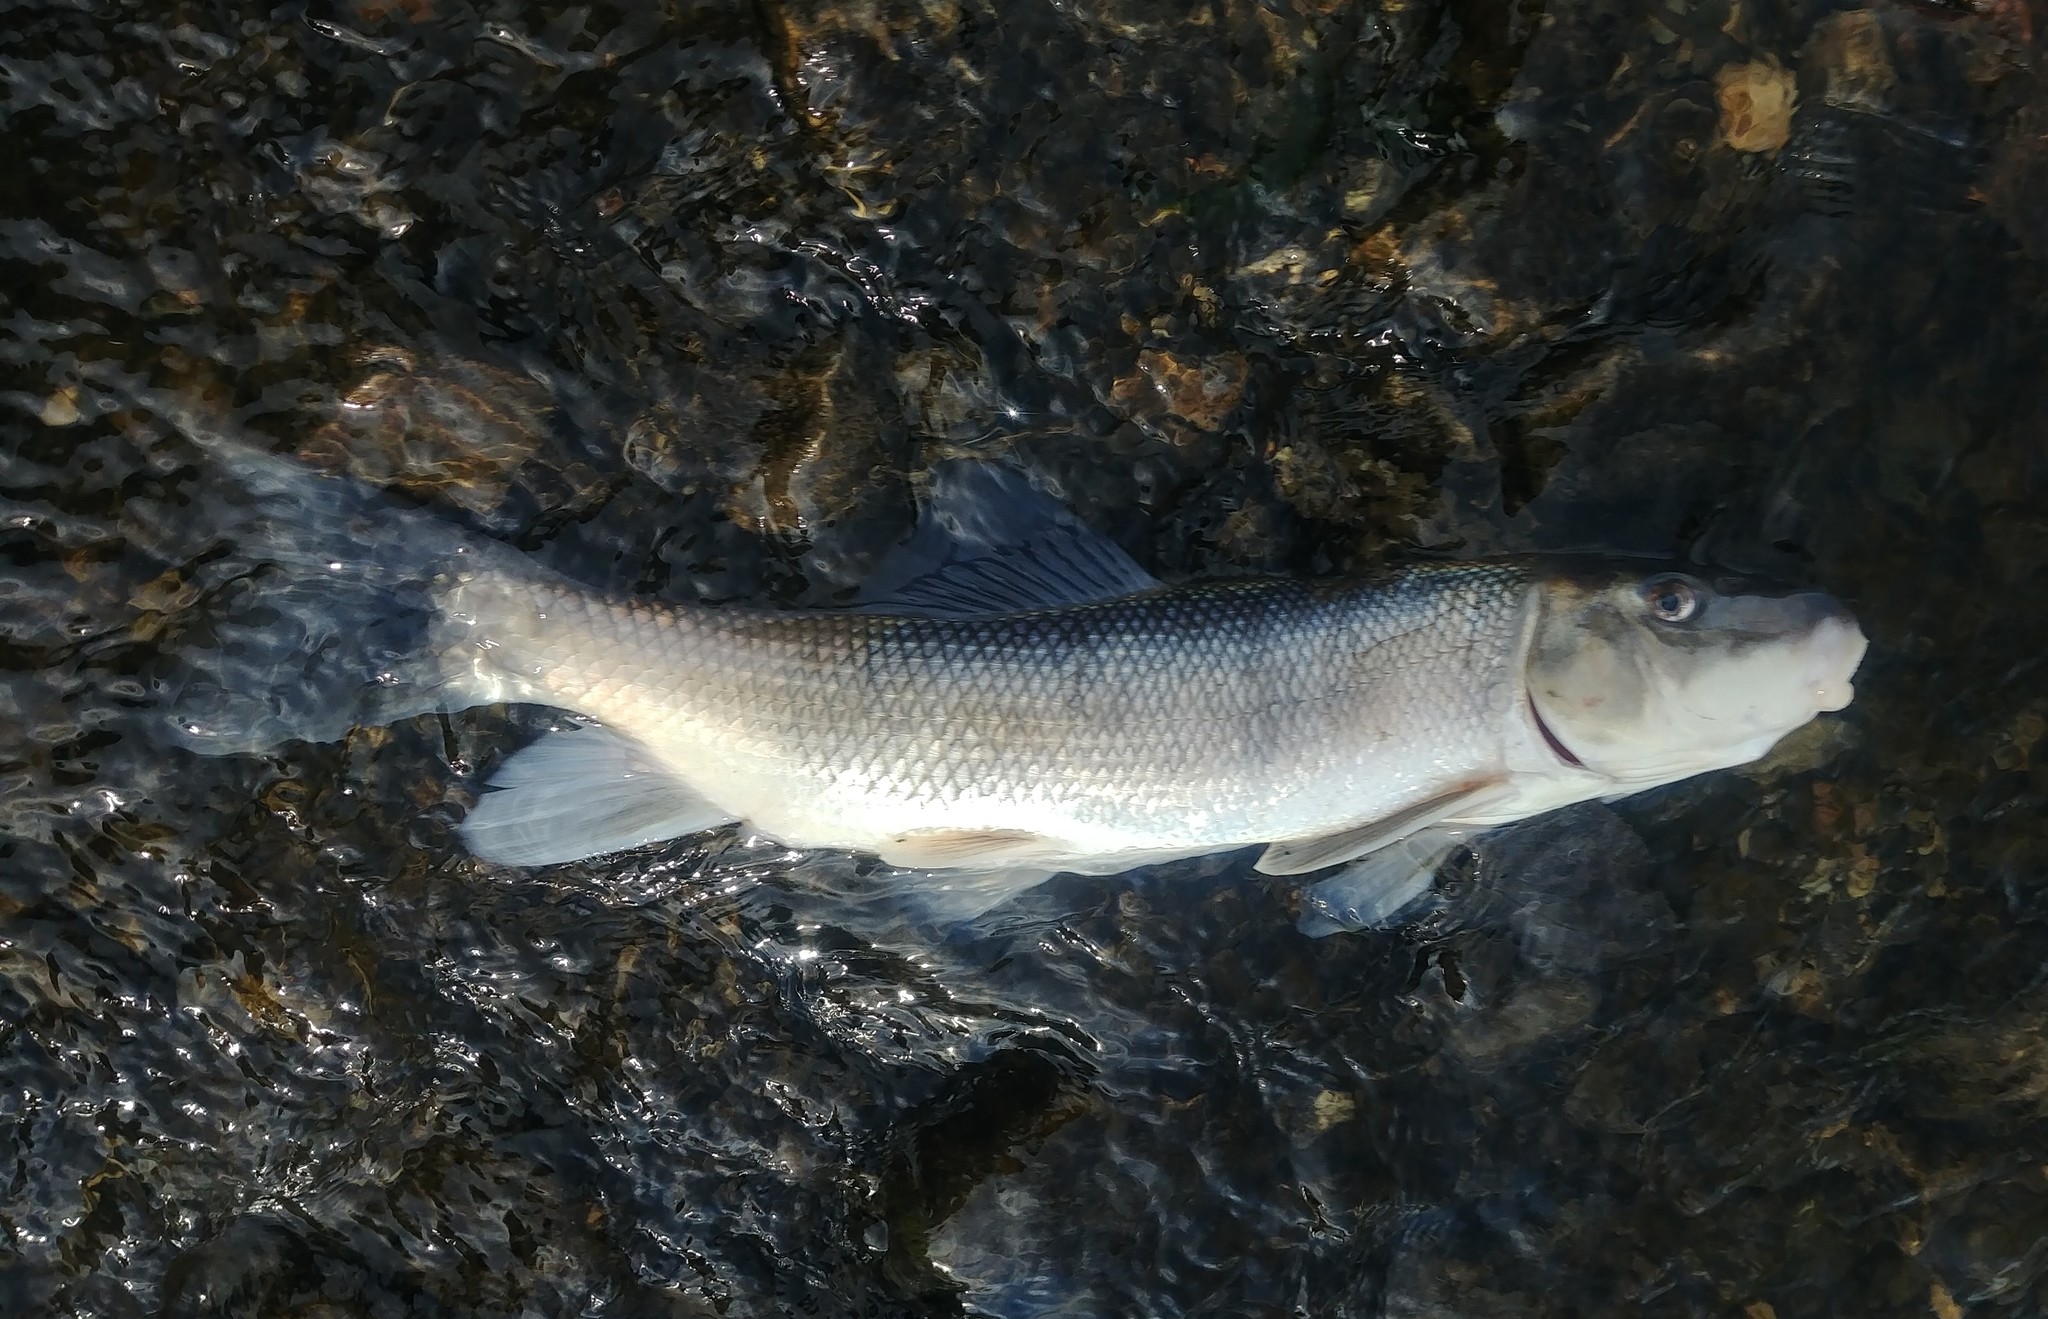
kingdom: Animalia
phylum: Chordata
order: Cypriniformes
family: Catostomidae
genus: Catostomus
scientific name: Catostomus commersonii
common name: White sucker
